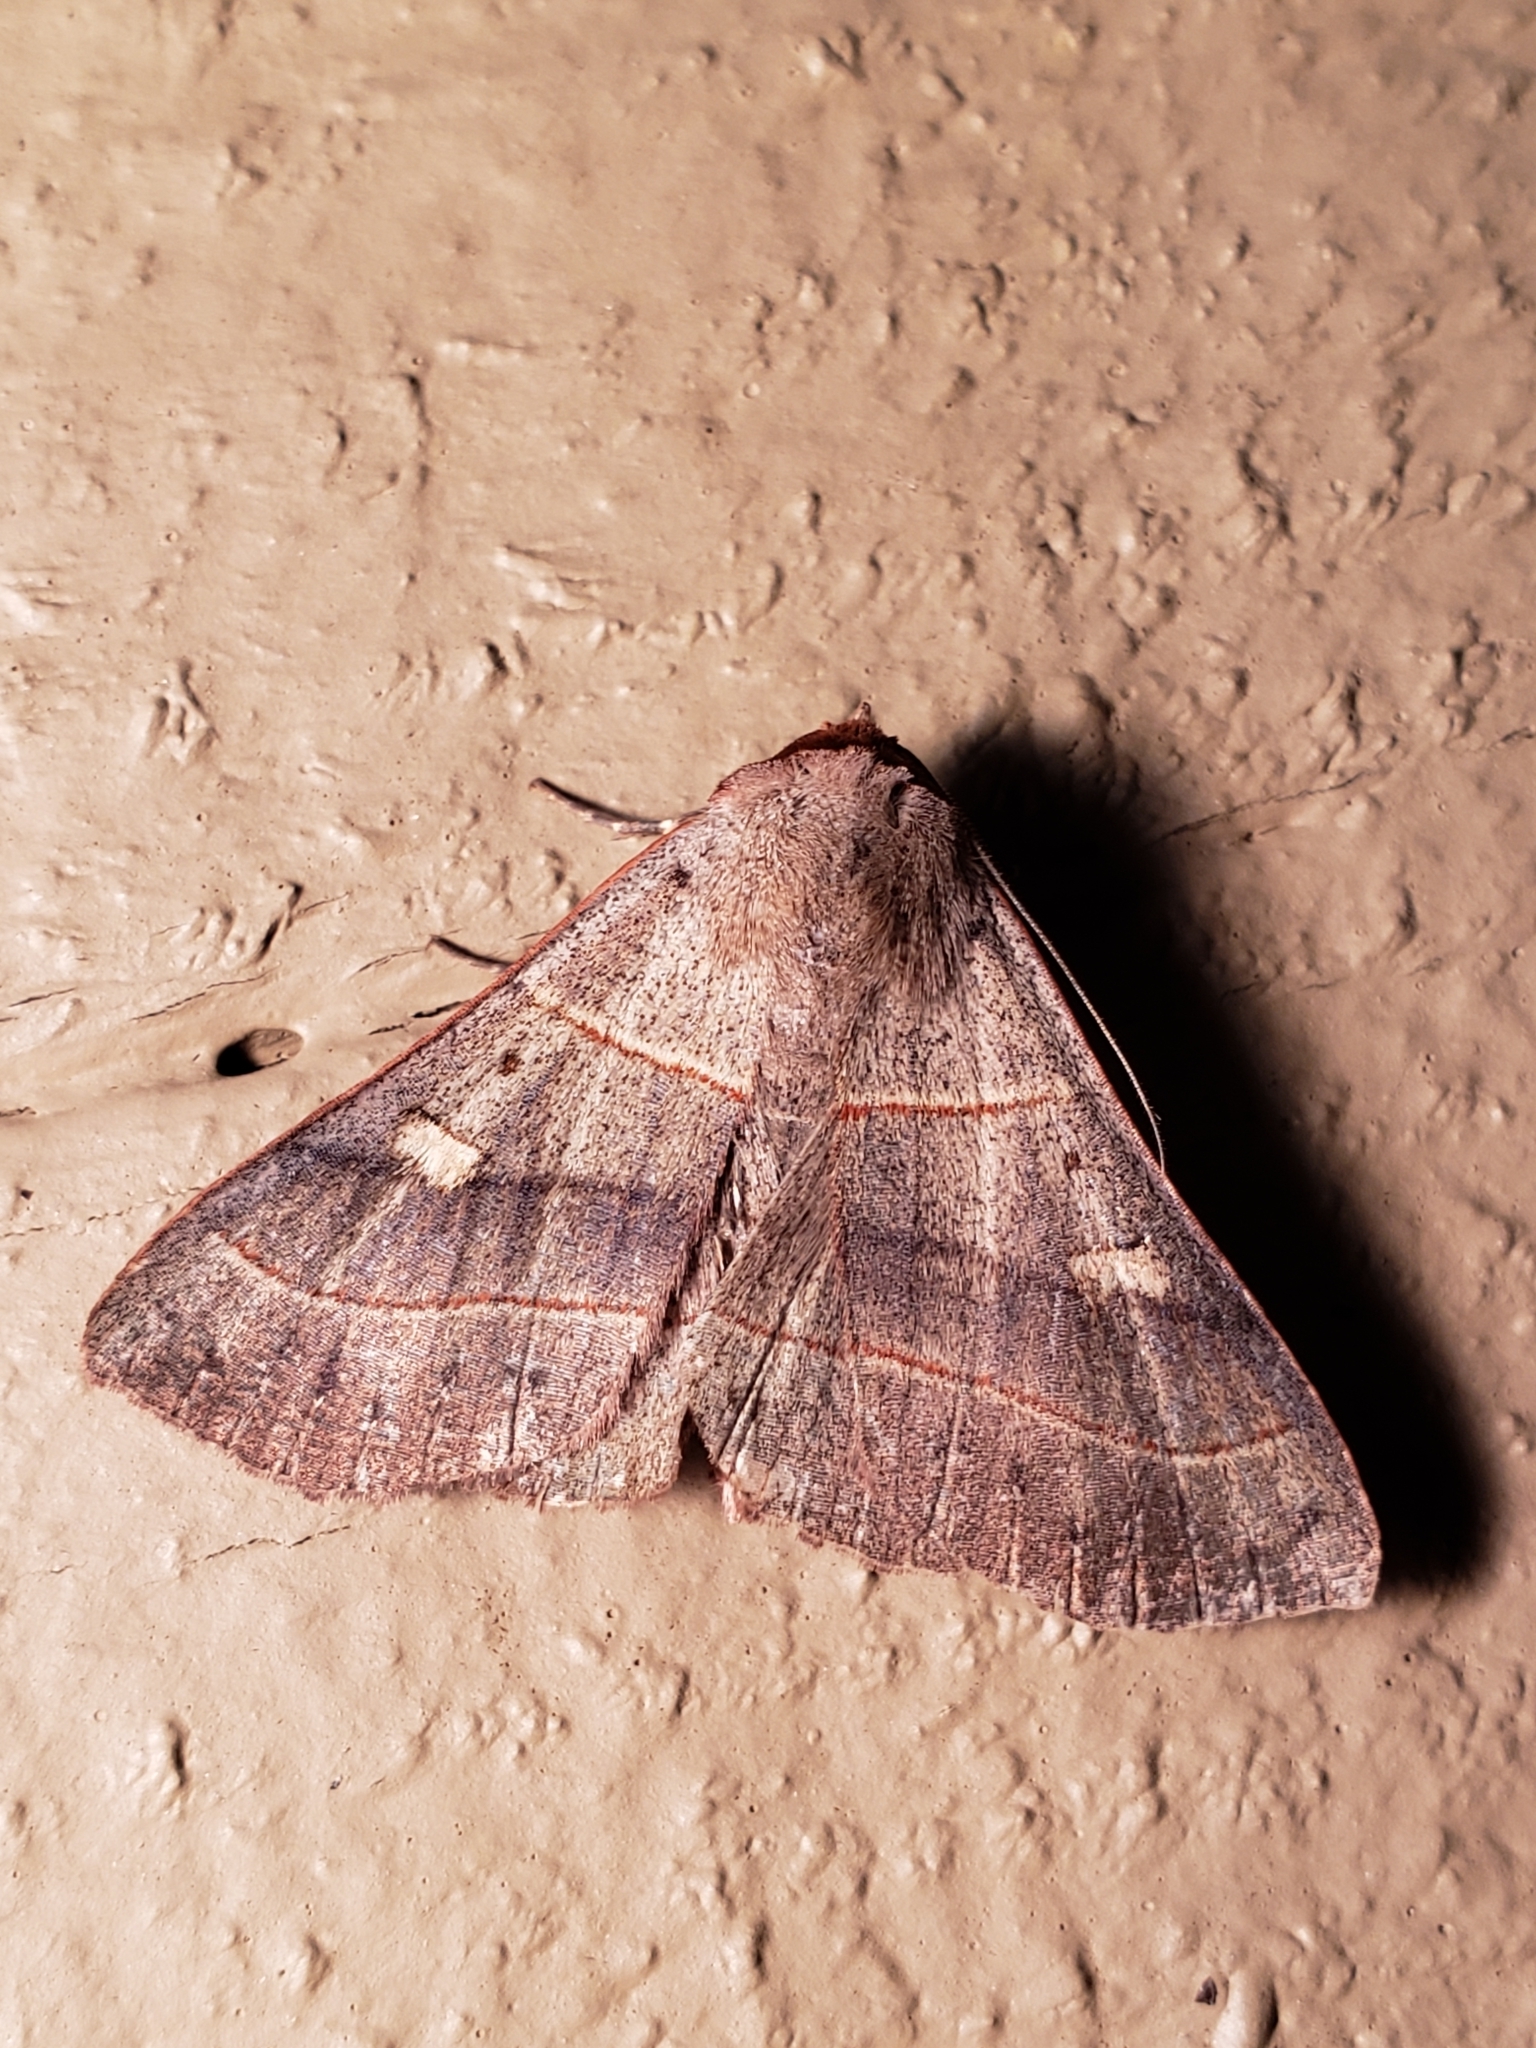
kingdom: Animalia
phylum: Arthropoda
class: Insecta
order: Lepidoptera
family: Erebidae
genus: Panopoda
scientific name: Panopoda rufimargo
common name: Red-lined panopoda moth
